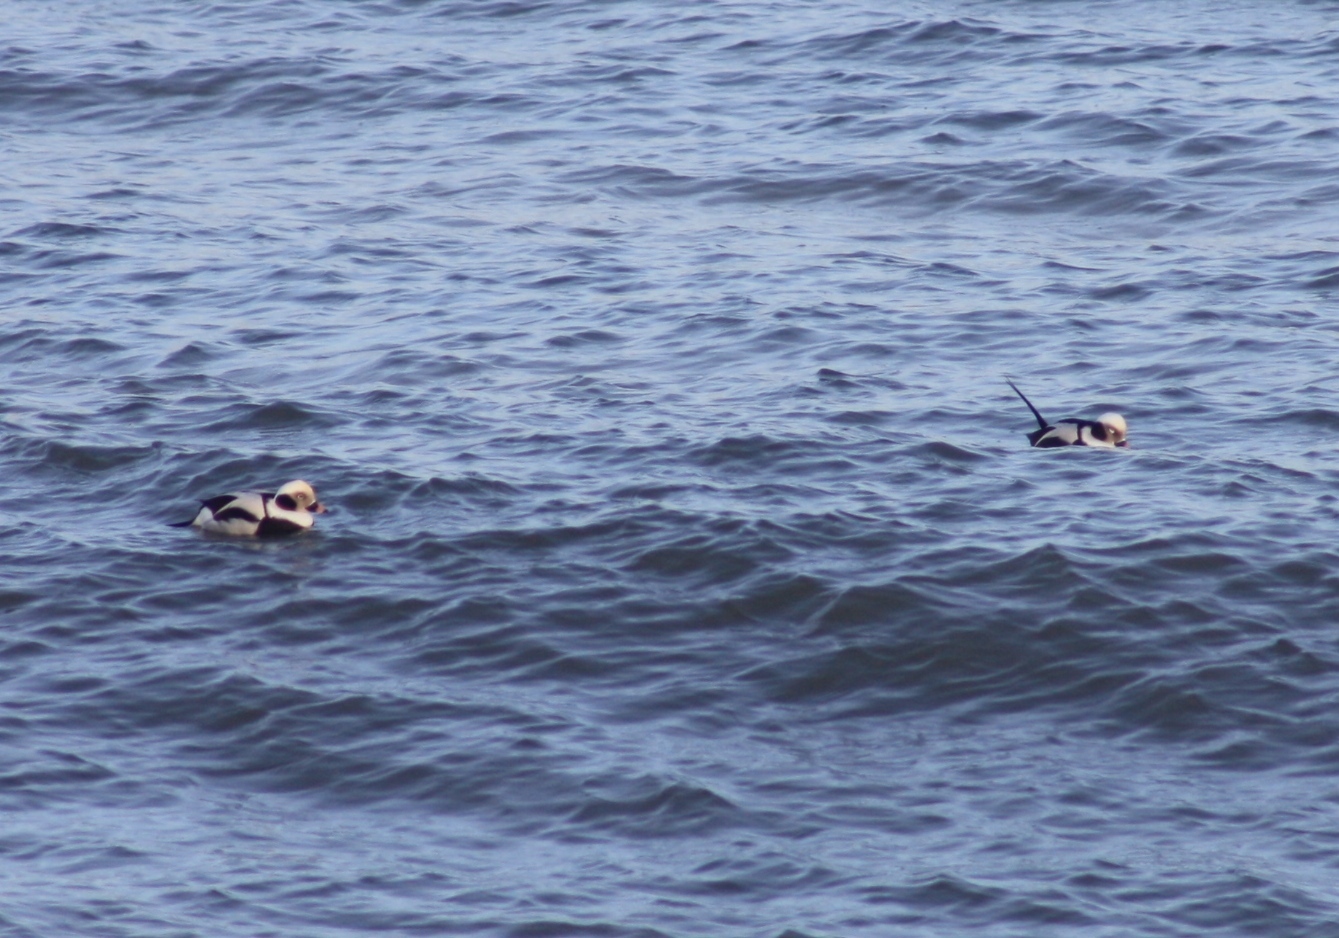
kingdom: Animalia
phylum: Chordata
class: Aves
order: Anseriformes
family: Anatidae
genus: Clangula
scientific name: Clangula hyemalis
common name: Long-tailed duck
